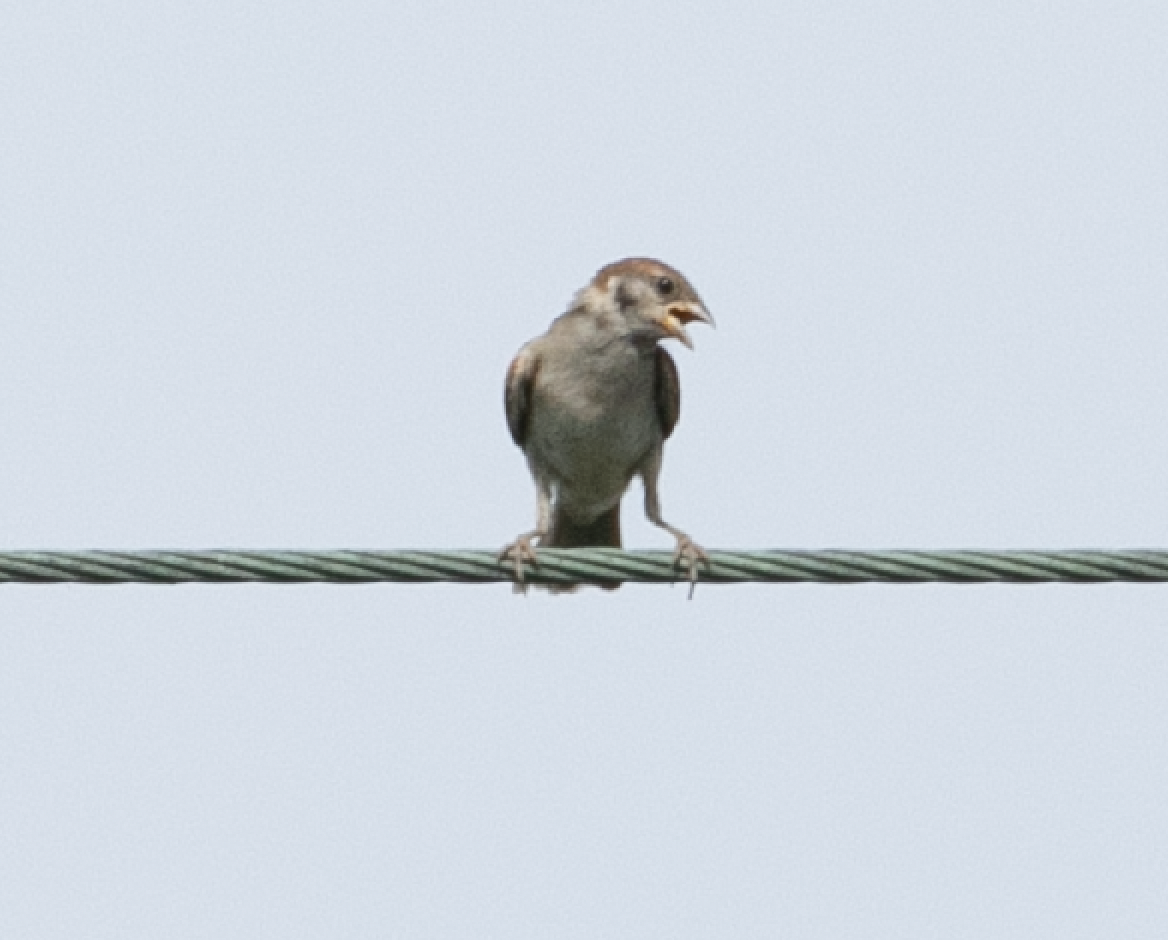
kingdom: Animalia
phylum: Chordata
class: Aves
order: Passeriformes
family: Passeridae
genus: Passer
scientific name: Passer montanus
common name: Eurasian tree sparrow
